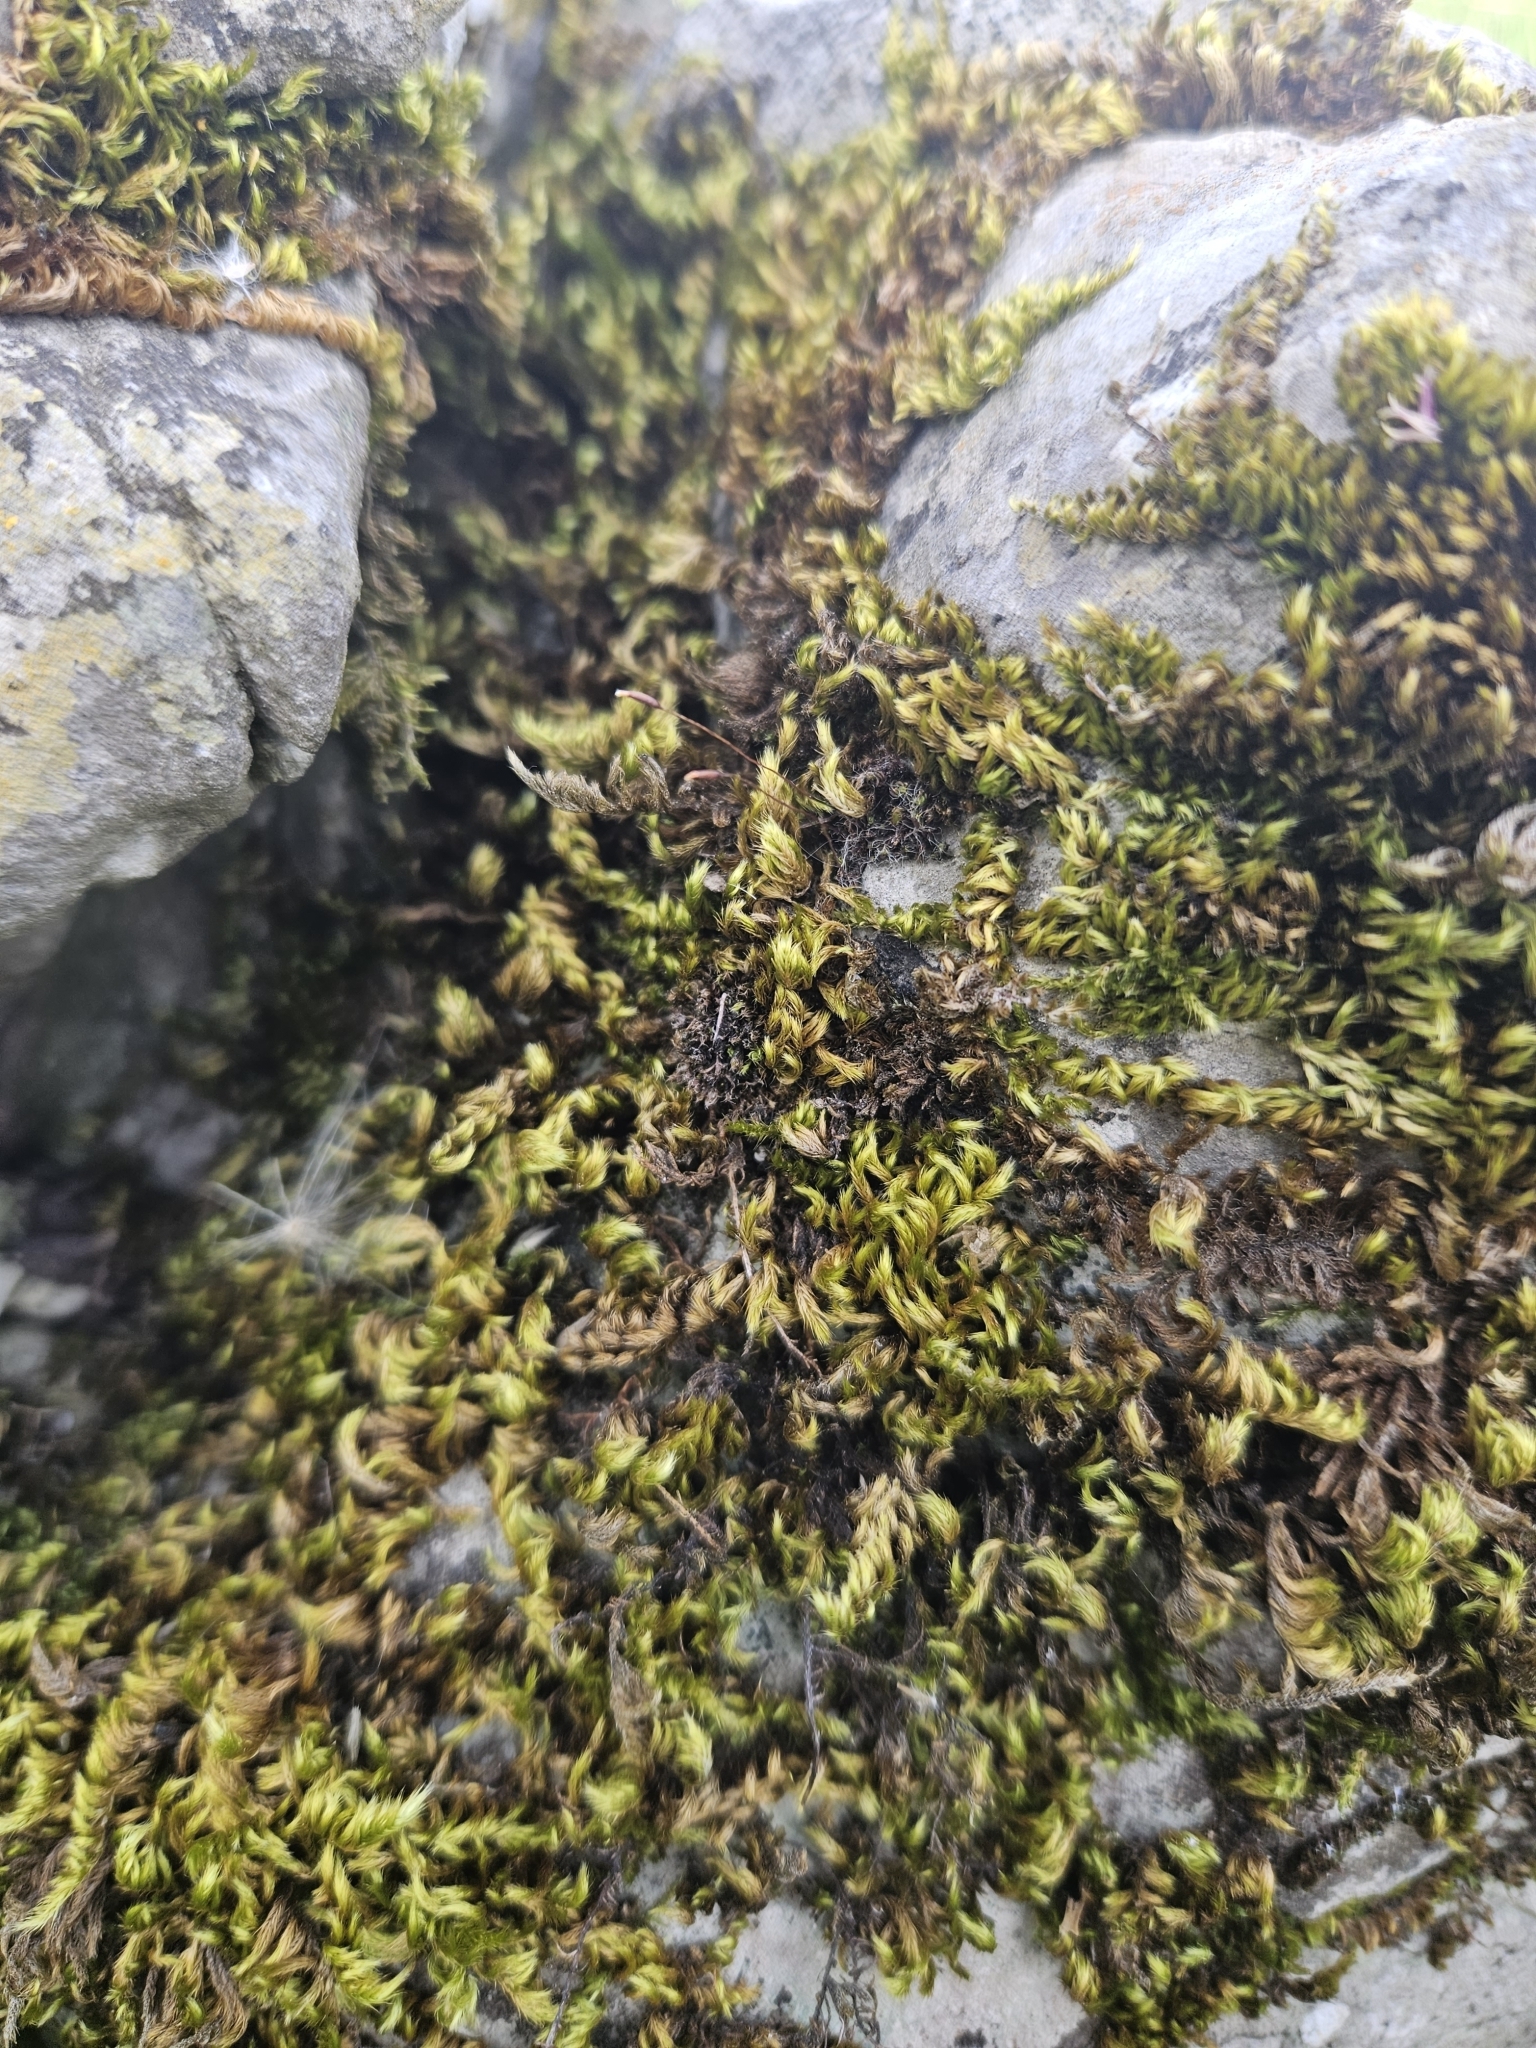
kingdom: Plantae
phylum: Bryophyta
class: Bryopsida
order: Hypnales
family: Brachytheciaceae
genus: Homalothecium
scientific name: Homalothecium sericeum
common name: Silky wall feather-moss
